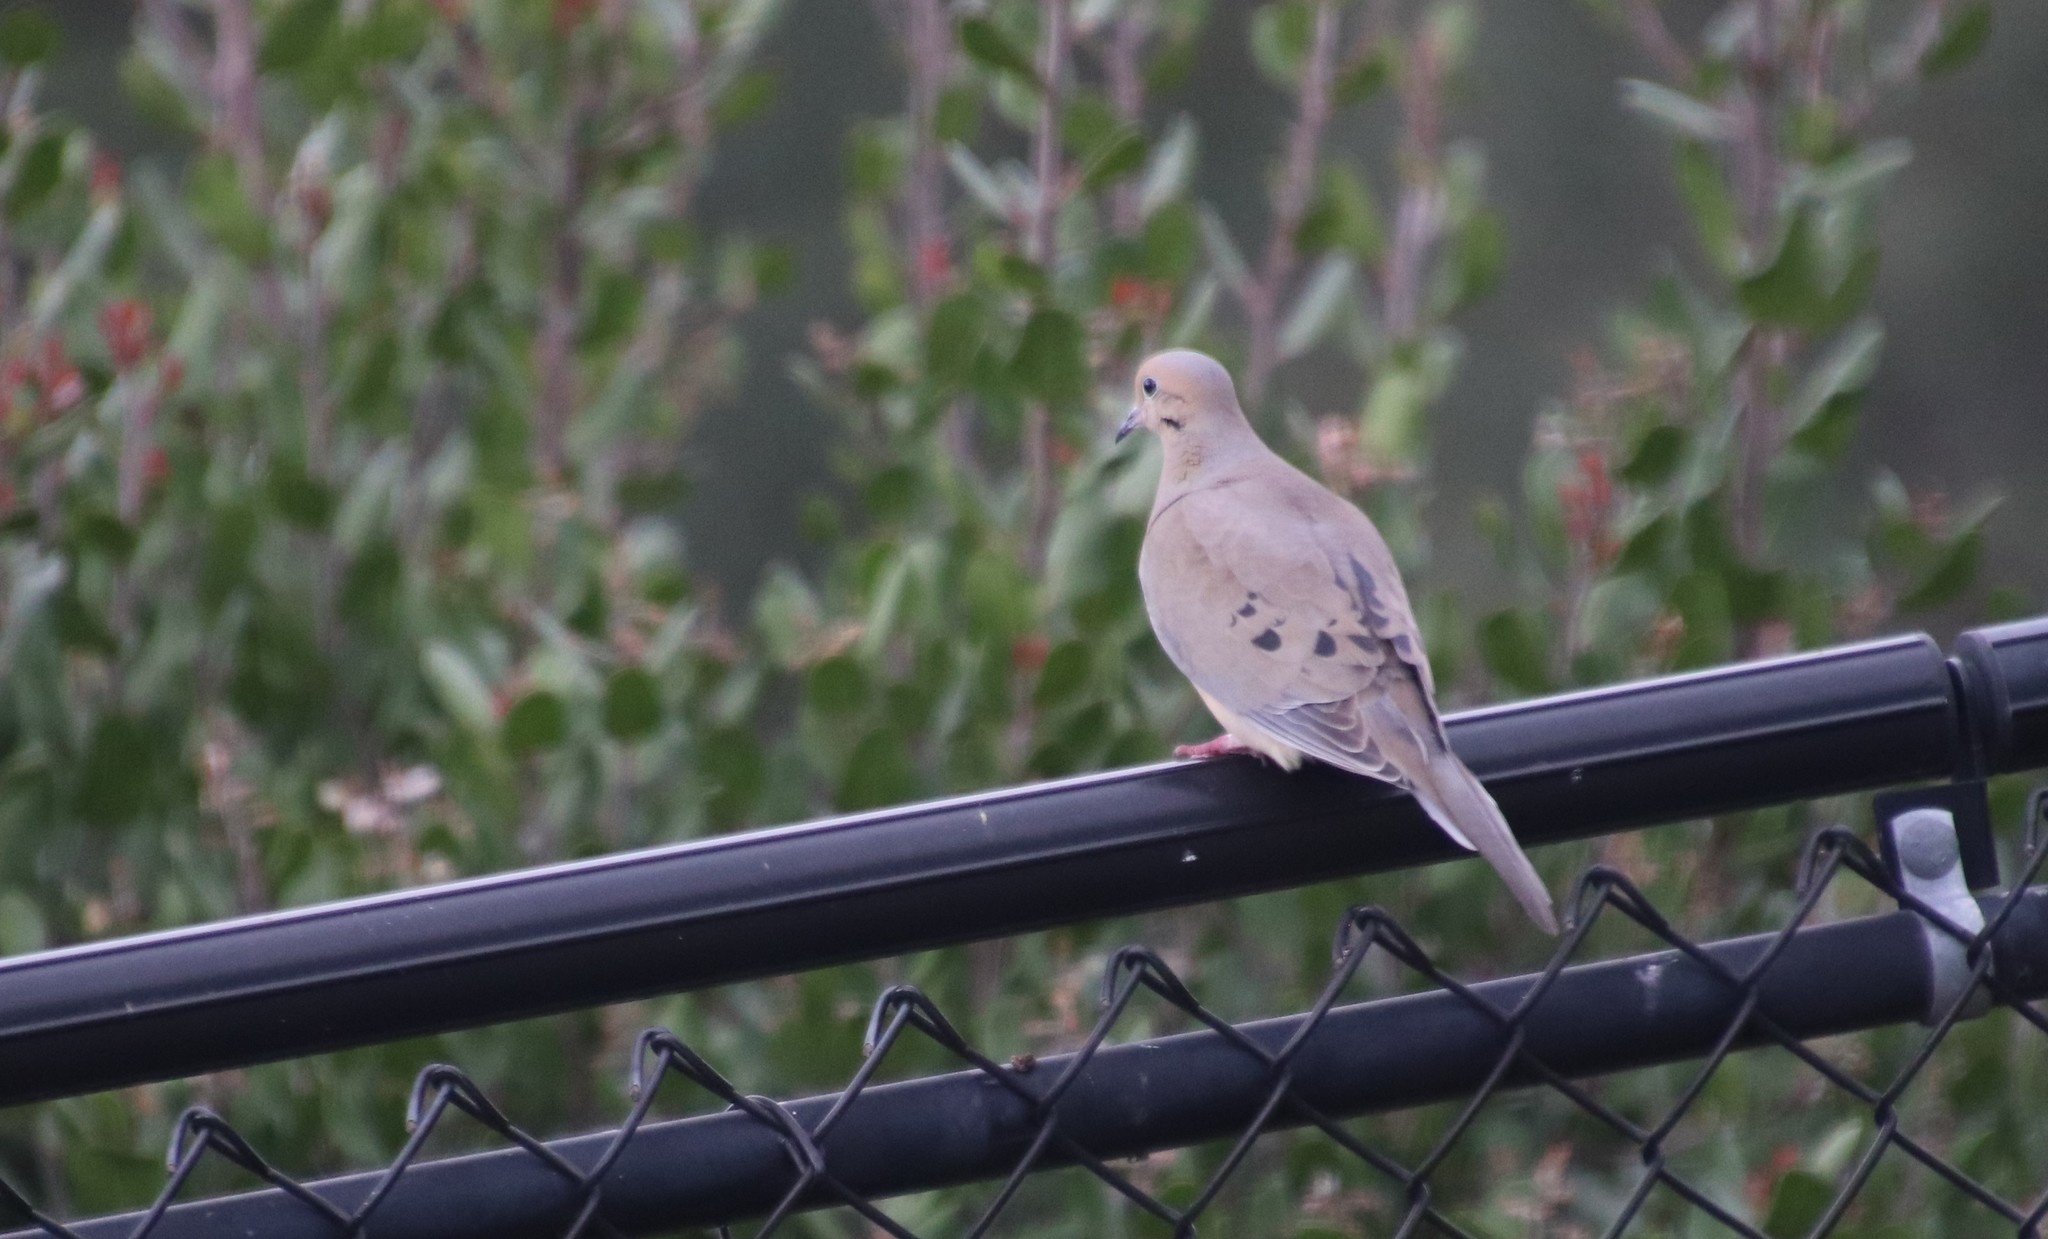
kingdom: Animalia
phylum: Chordata
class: Aves
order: Columbiformes
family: Columbidae
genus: Zenaida
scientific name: Zenaida macroura
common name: Mourning dove
